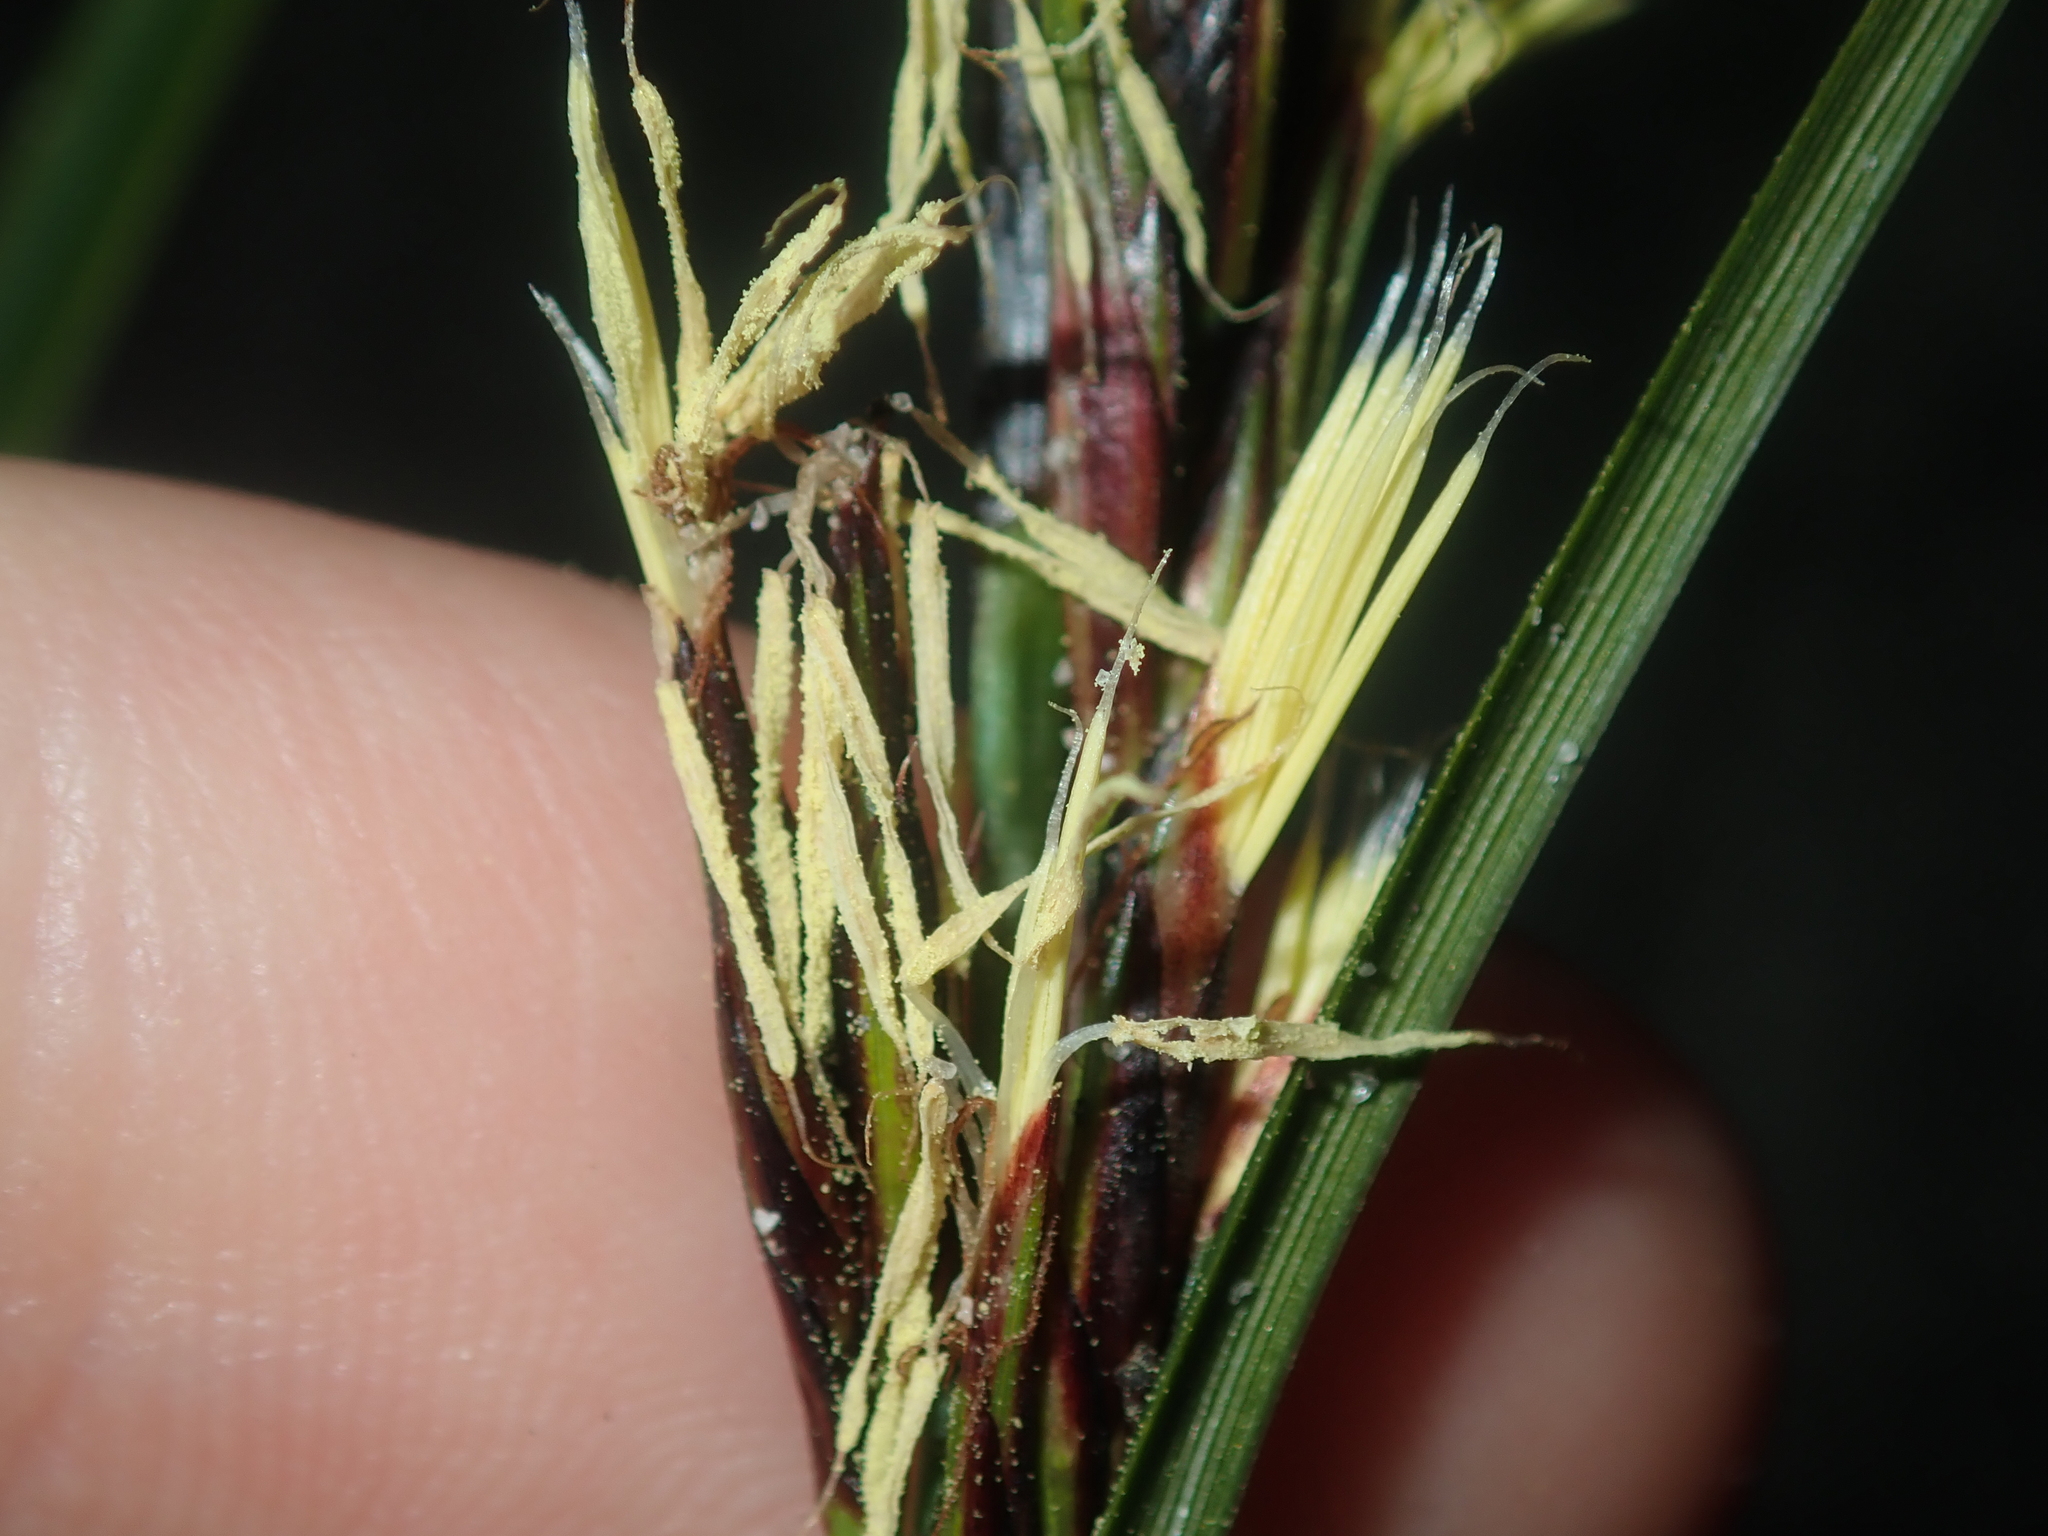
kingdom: Plantae
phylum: Tracheophyta
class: Liliopsida
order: Poales
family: Cyperaceae
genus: Morelotia
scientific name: Morelotia
